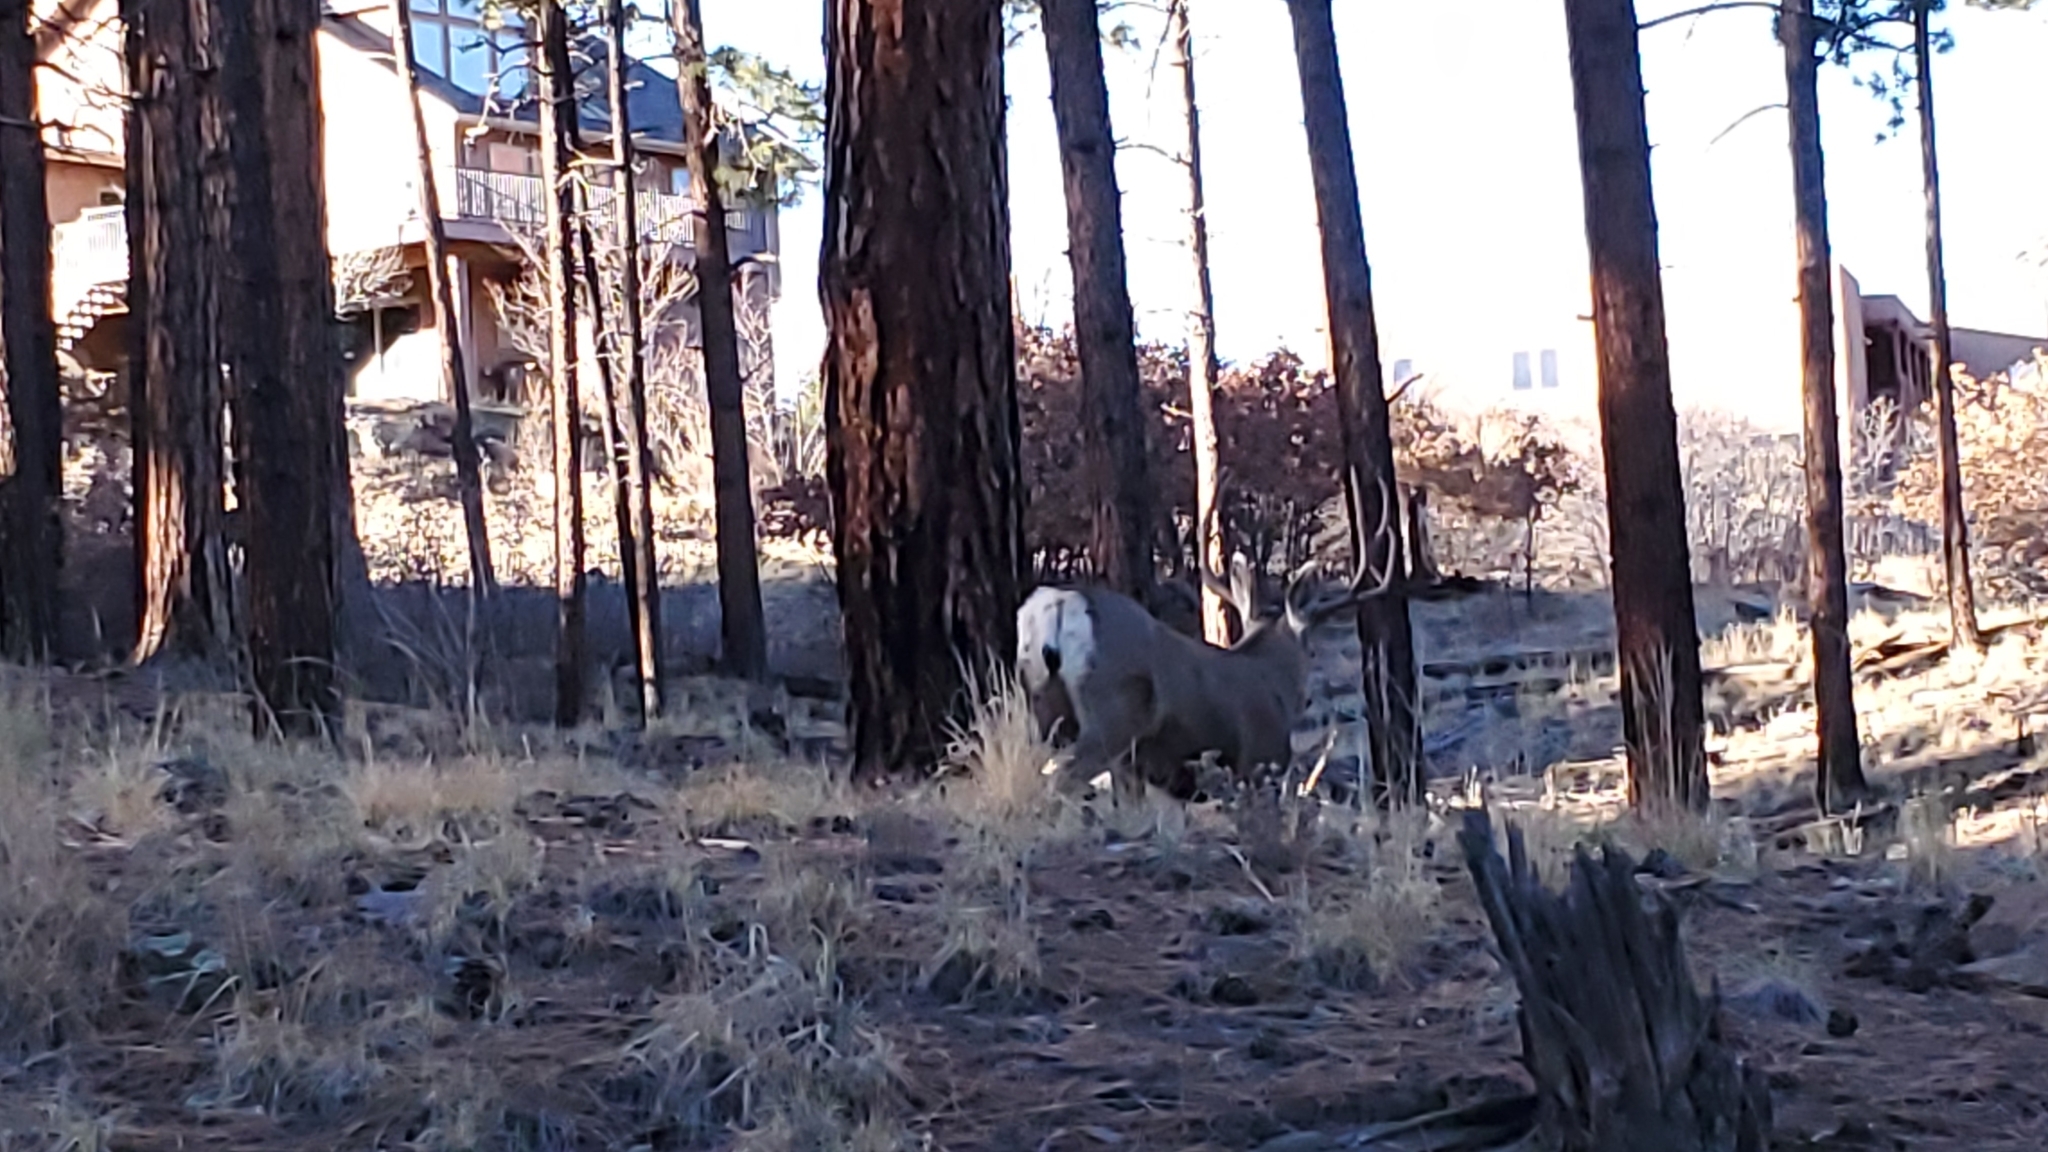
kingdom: Animalia
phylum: Chordata
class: Mammalia
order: Artiodactyla
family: Cervidae
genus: Odocoileus
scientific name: Odocoileus hemionus
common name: Mule deer
